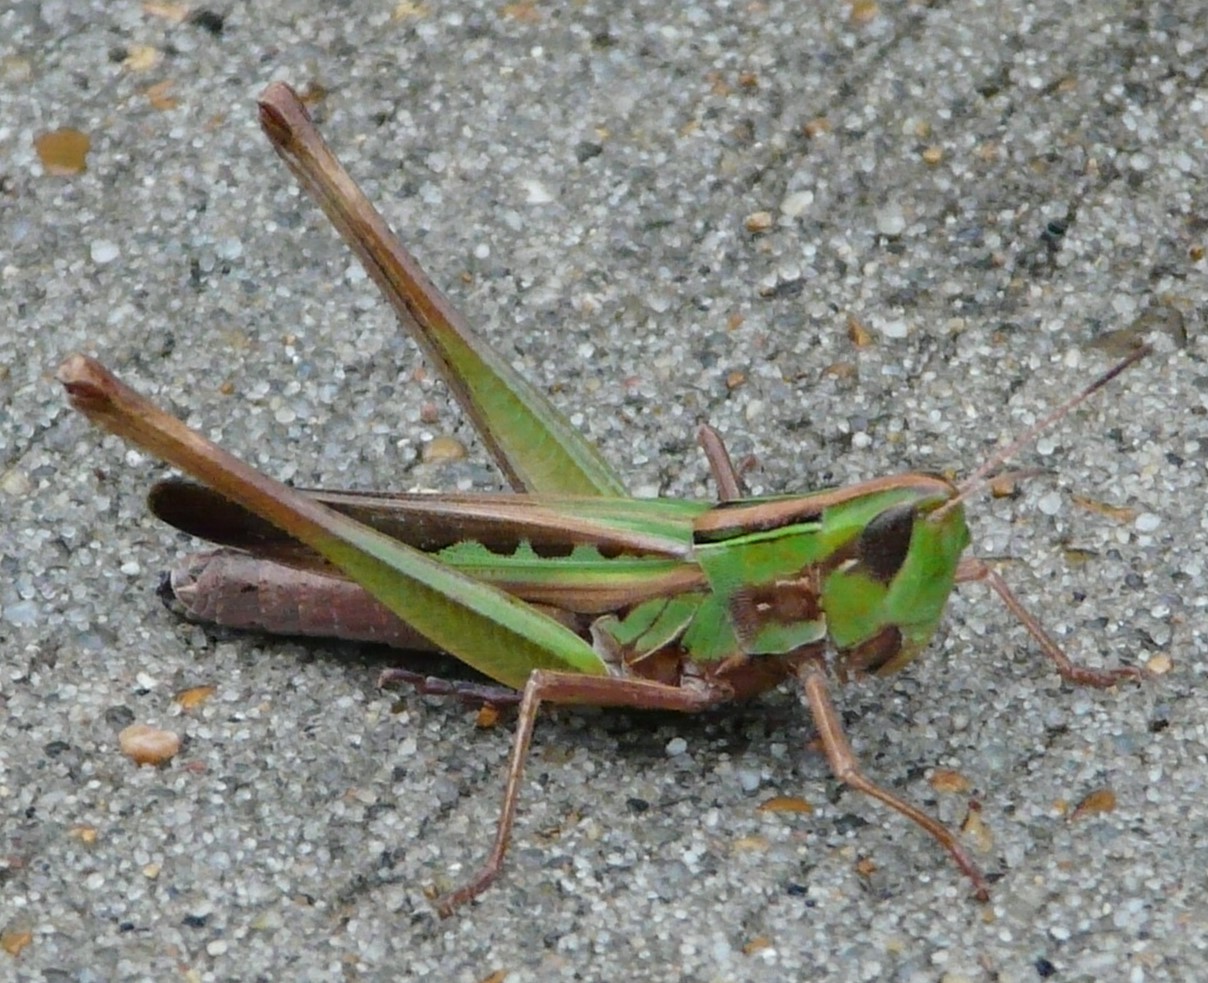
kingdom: Animalia
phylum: Arthropoda
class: Insecta
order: Orthoptera
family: Acrididae
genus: Syrbula
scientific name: Syrbula admirabilis
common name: Handsome grasshopper
